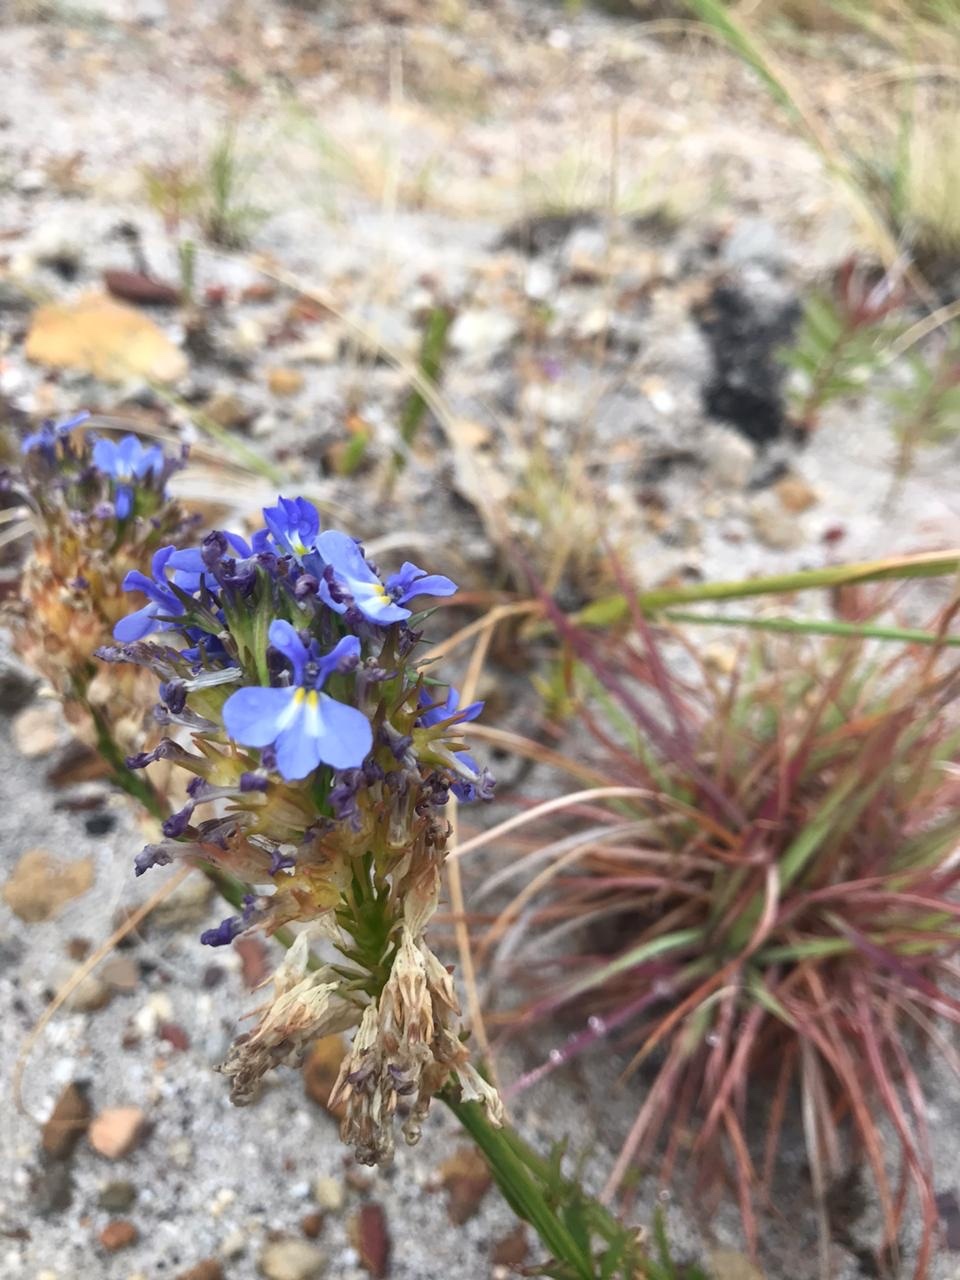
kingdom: Plantae
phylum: Tracheophyta
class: Magnoliopsida
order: Asterales
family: Campanulaceae
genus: Lobelia
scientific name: Lobelia comosa
